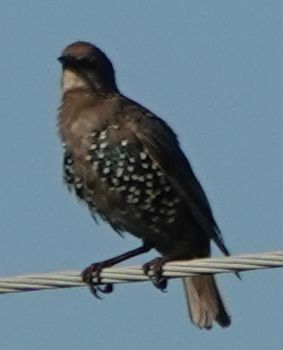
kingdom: Animalia
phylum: Chordata
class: Aves
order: Passeriformes
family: Sturnidae
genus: Sturnus
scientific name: Sturnus vulgaris
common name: Common starling
